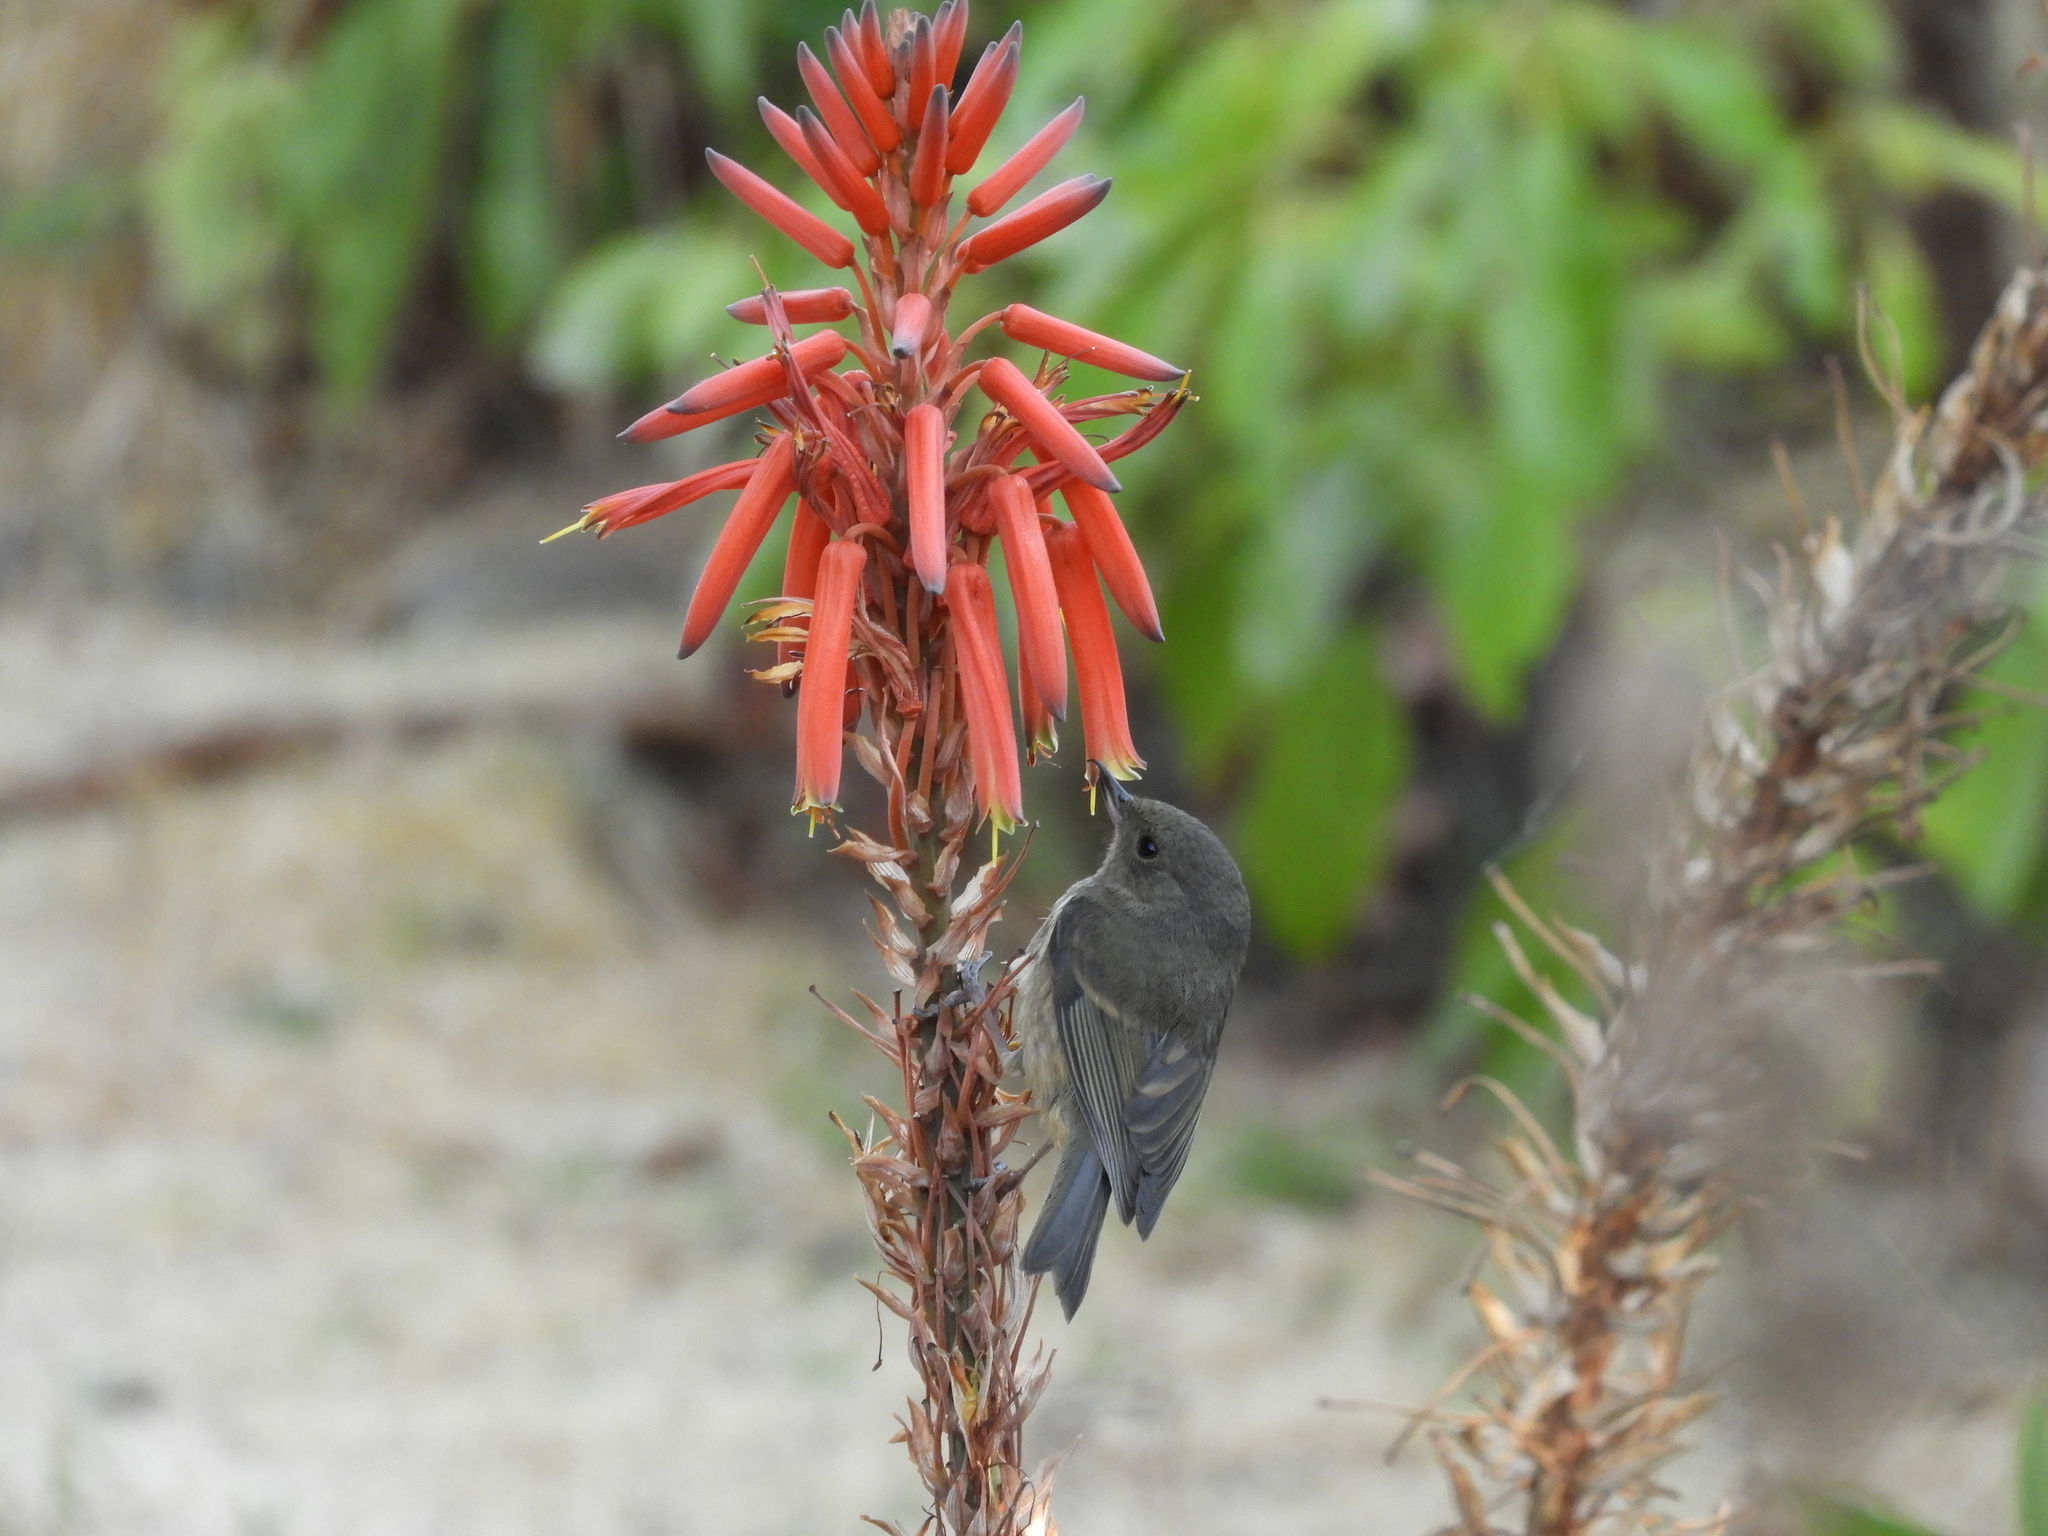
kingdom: Animalia
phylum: Chordata
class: Aves
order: Passeriformes
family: Thraupidae
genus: Diglossa
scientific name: Diglossa baritula
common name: Cinnamon-bellied flowerpiercer
